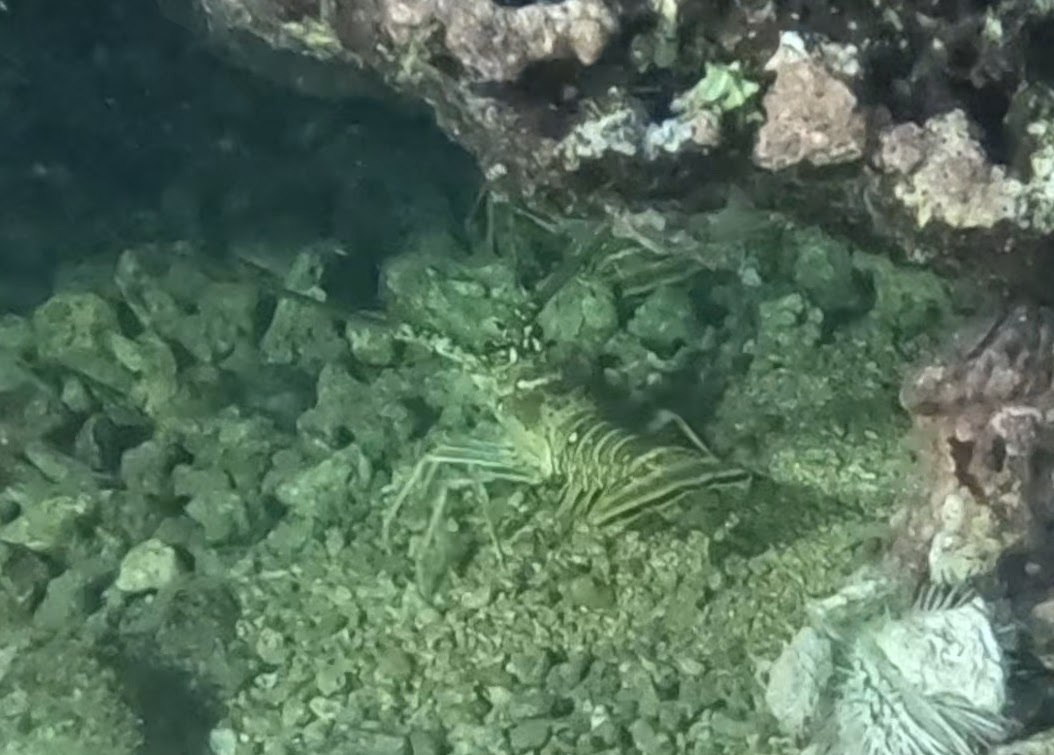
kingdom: Animalia
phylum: Arthropoda
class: Malacostraca
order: Decapoda
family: Palinuridae
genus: Panulirus
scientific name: Panulirus argus
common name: Caribbean spiny lobster
